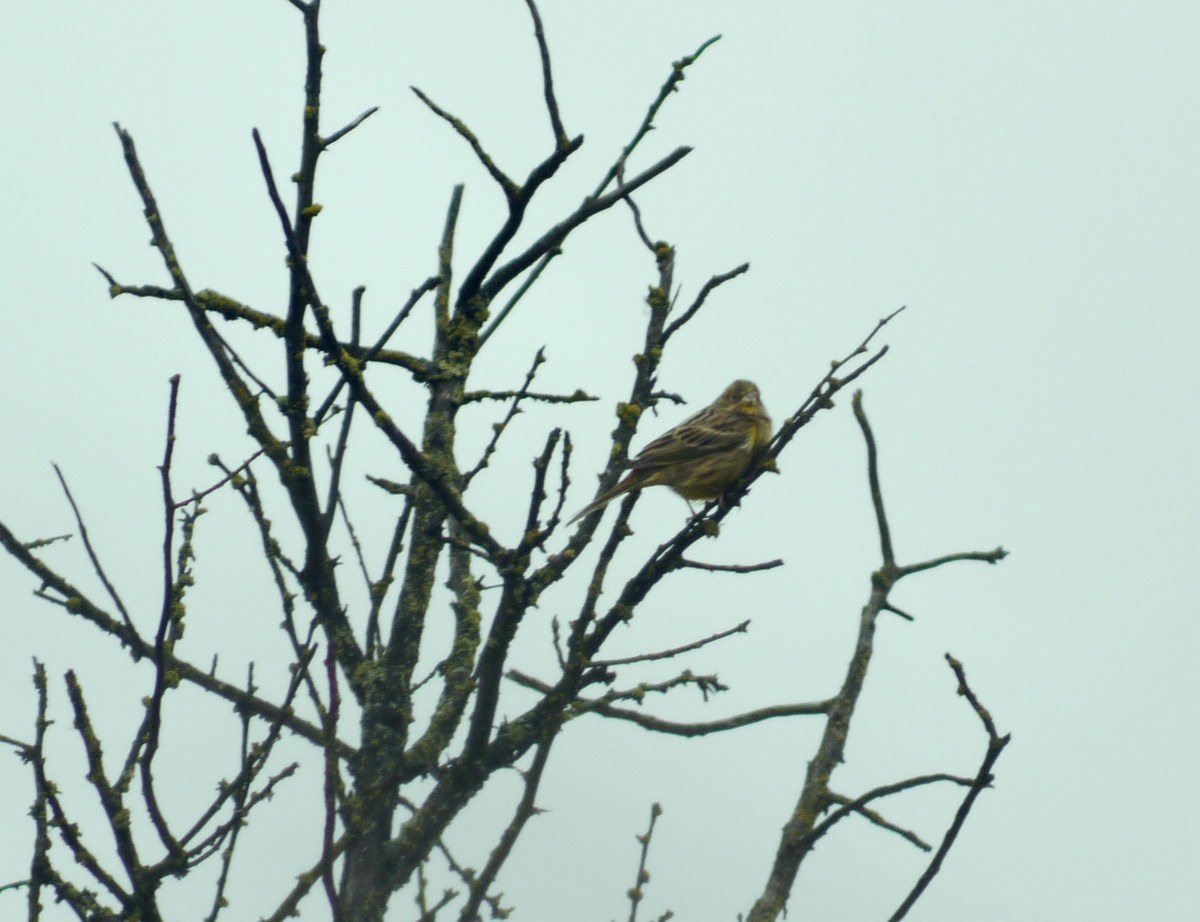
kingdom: Animalia
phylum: Chordata
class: Aves
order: Passeriformes
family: Emberizidae
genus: Emberiza
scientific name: Emberiza citrinella
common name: Yellowhammer
